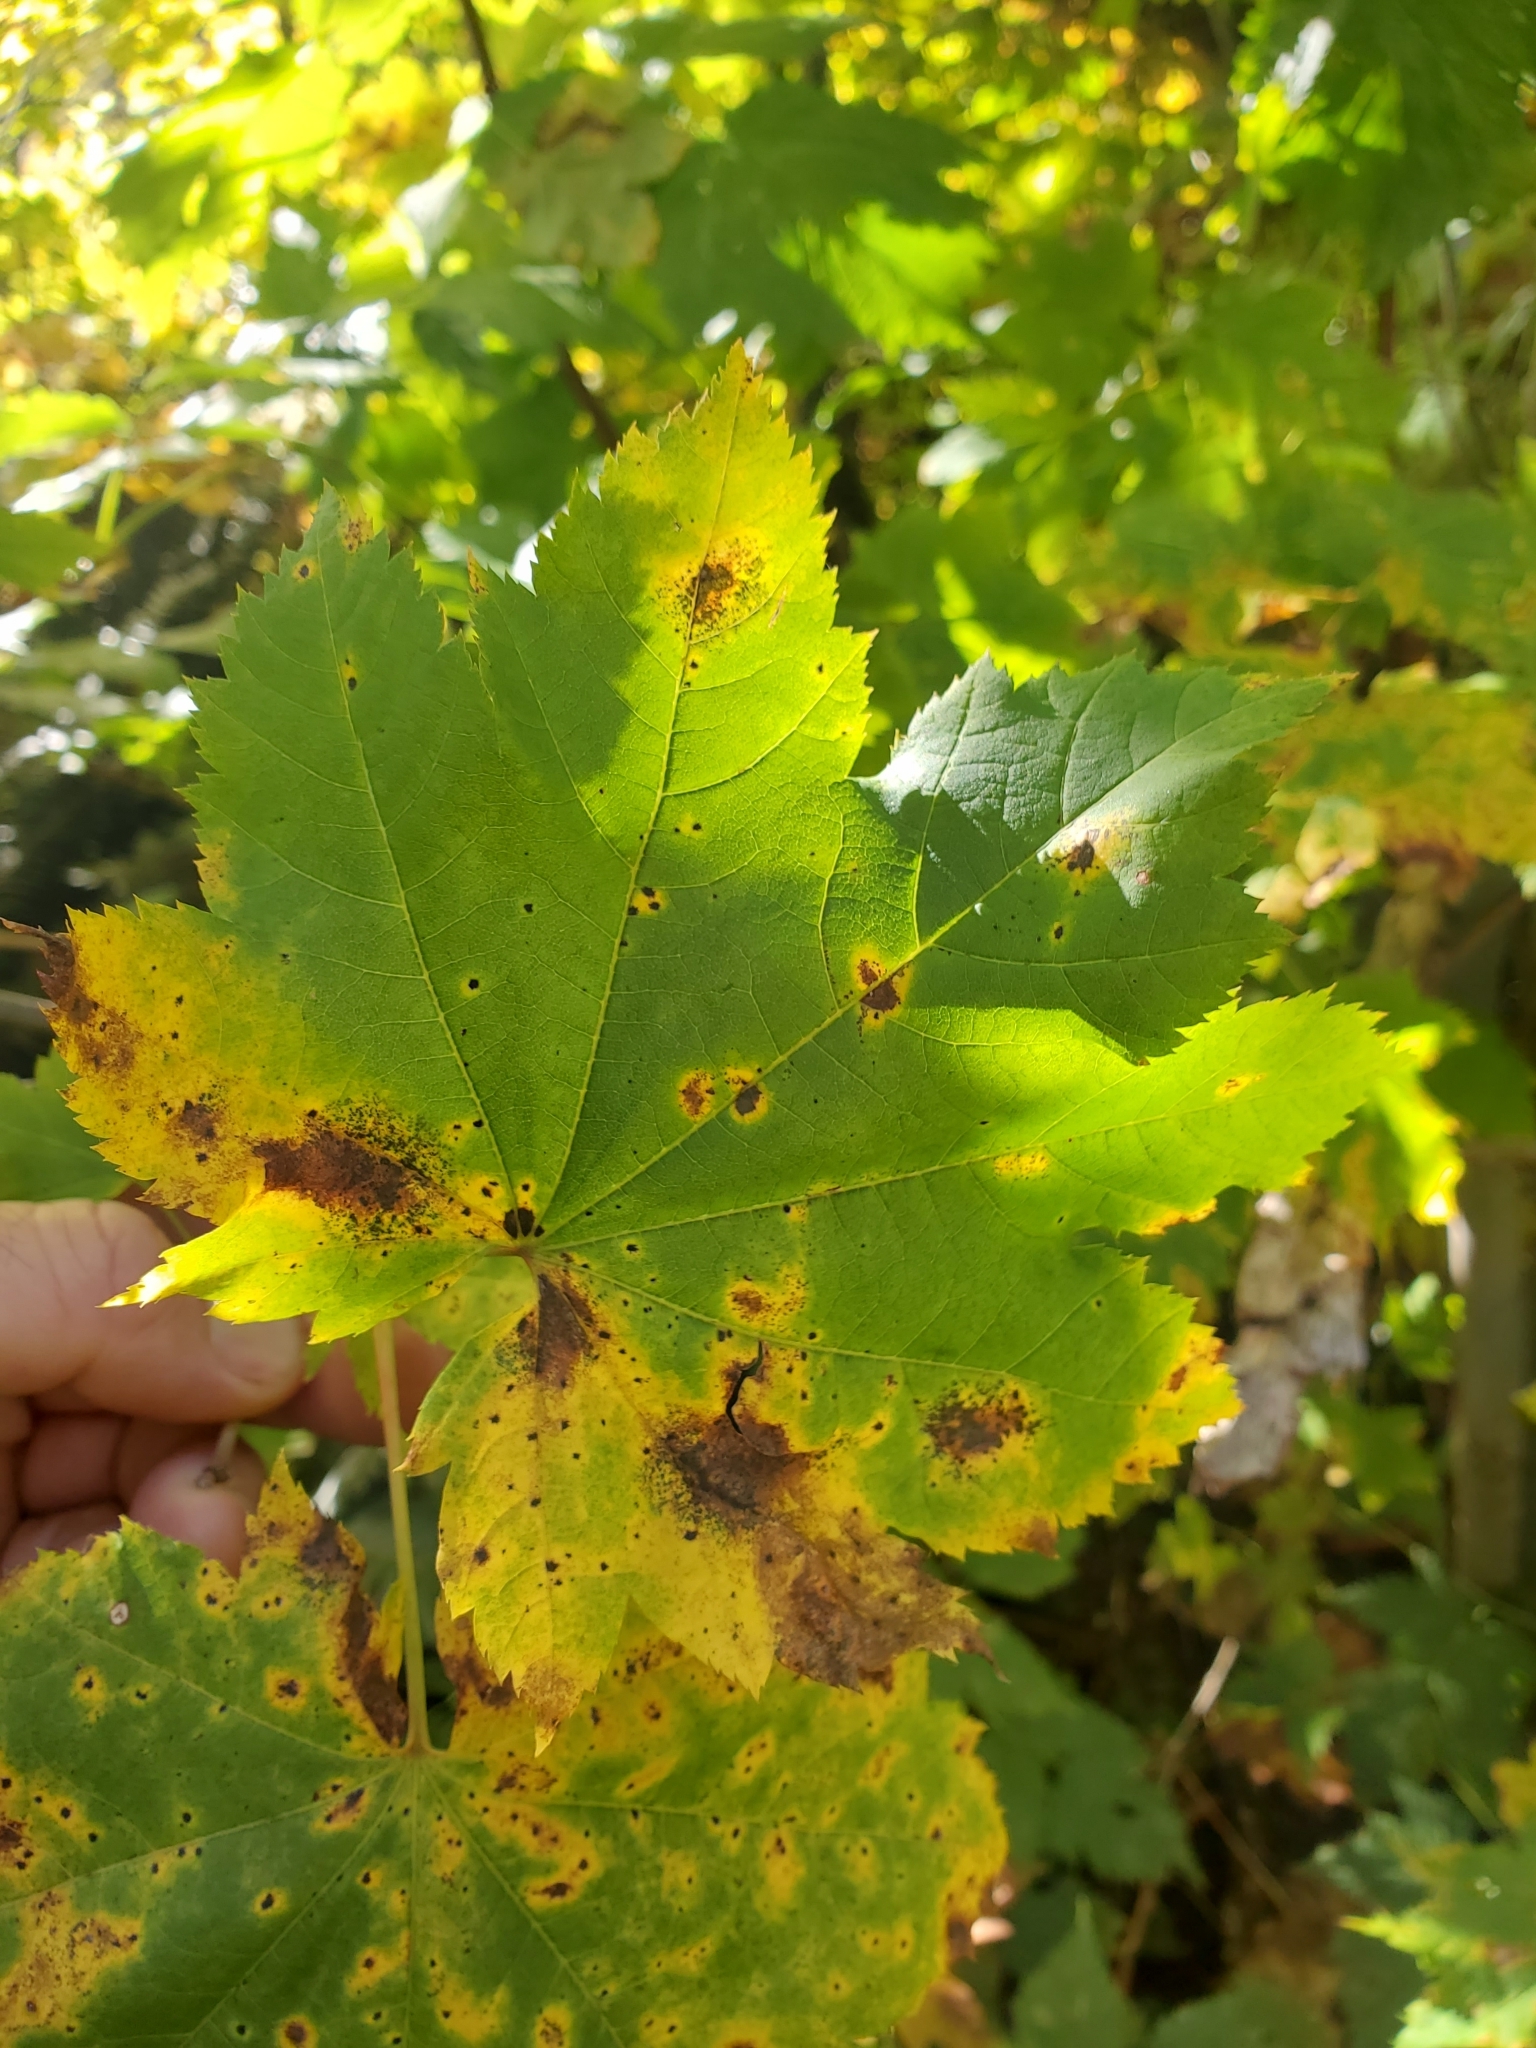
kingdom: Plantae
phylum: Tracheophyta
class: Magnoliopsida
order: Sapindales
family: Sapindaceae
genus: Acer
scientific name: Acer circinatum
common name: Vine maple
